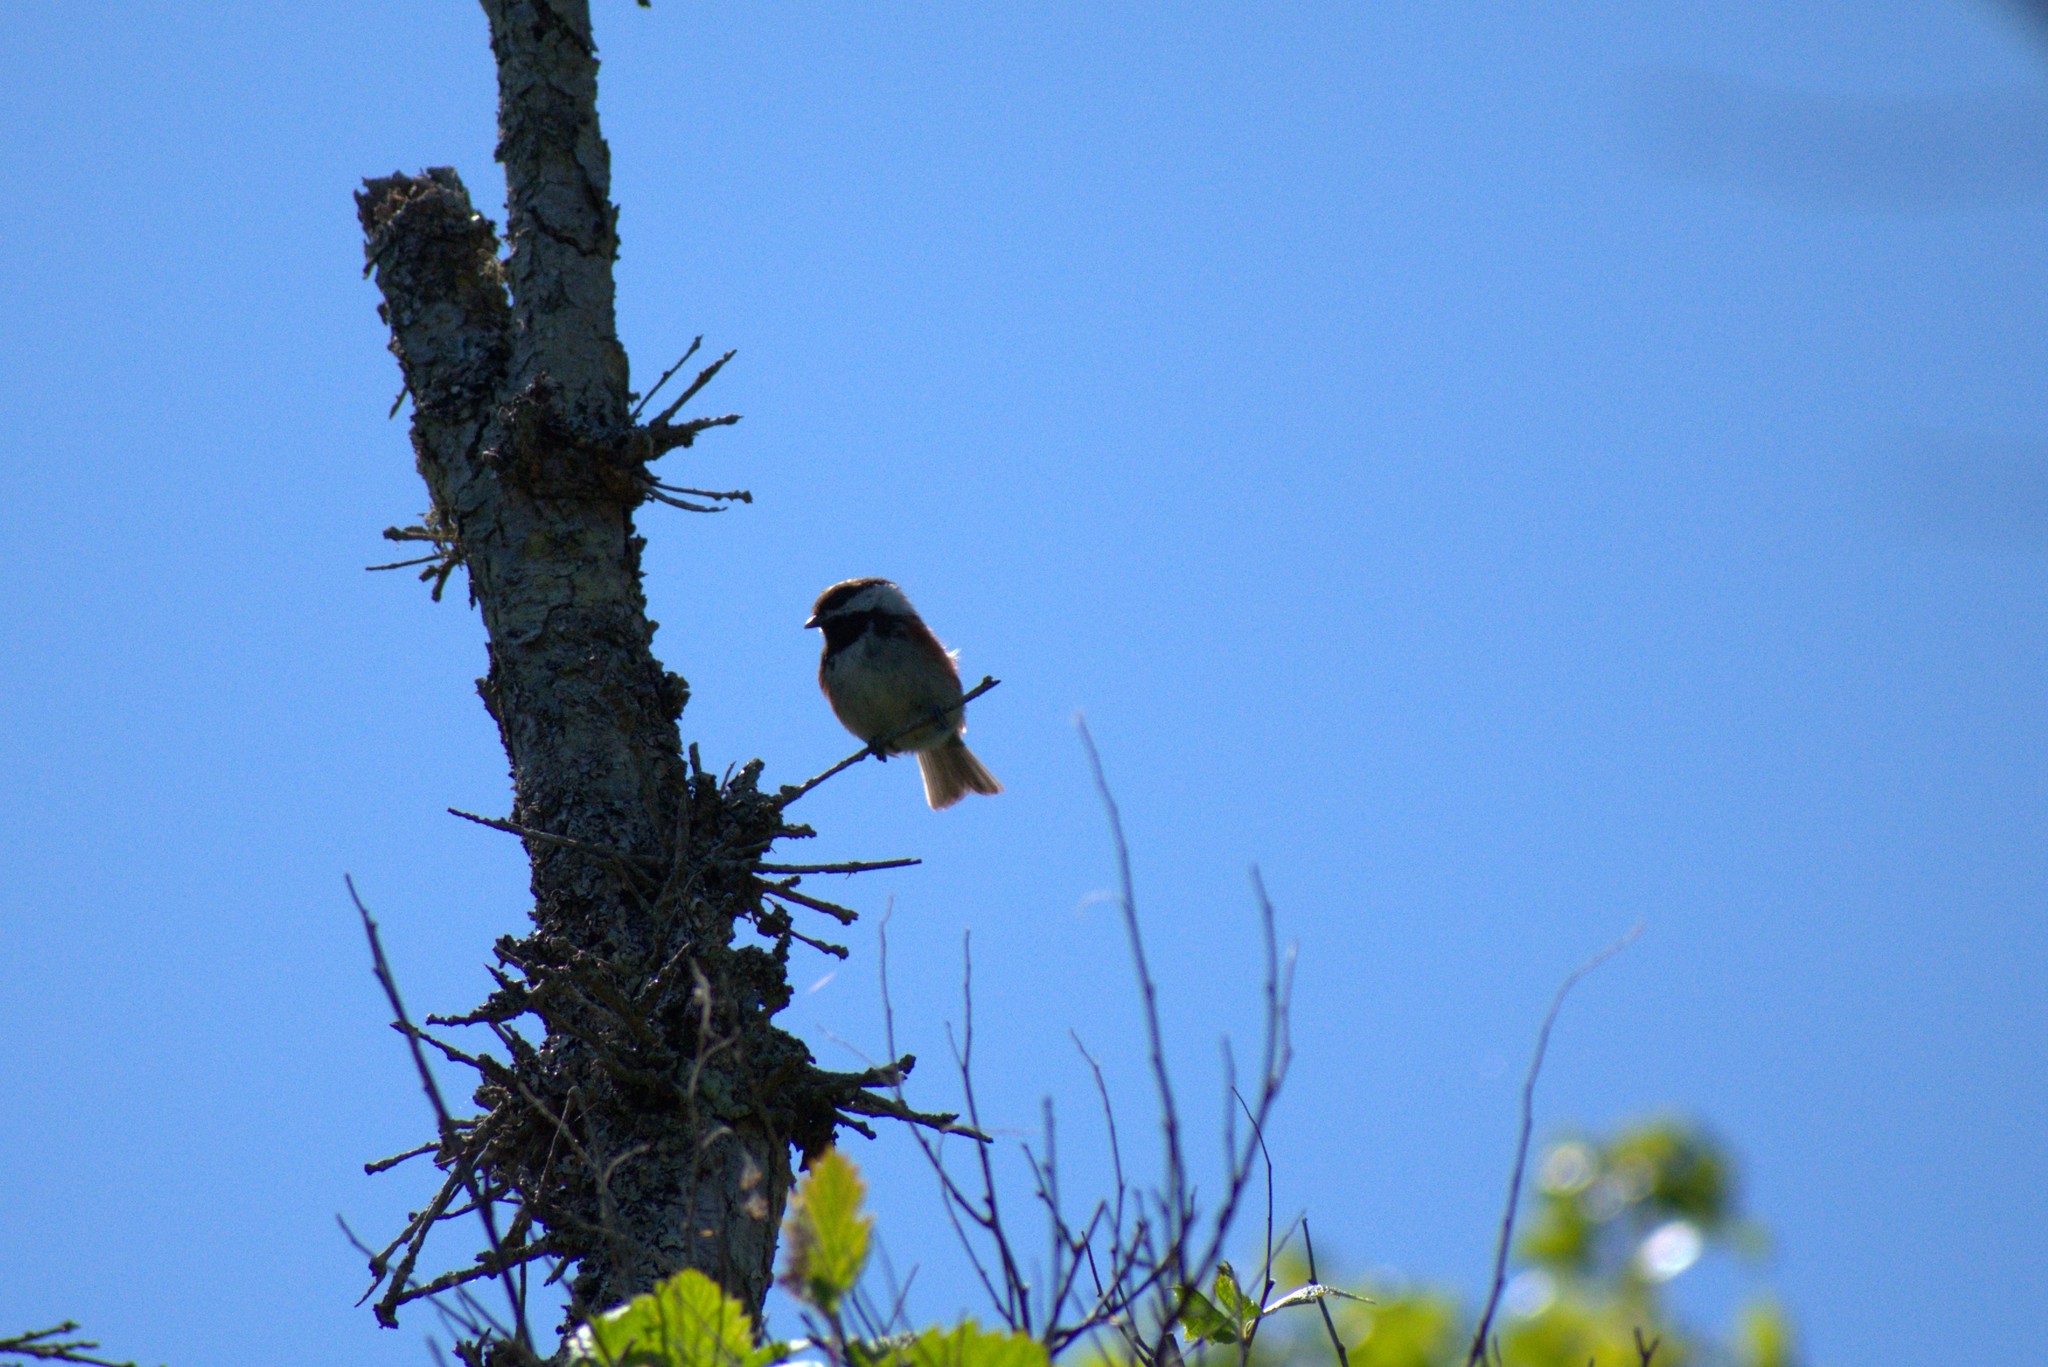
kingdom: Animalia
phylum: Chordata
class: Aves
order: Passeriformes
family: Paridae
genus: Poecile
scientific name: Poecile rufescens
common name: Chestnut-backed chickadee
